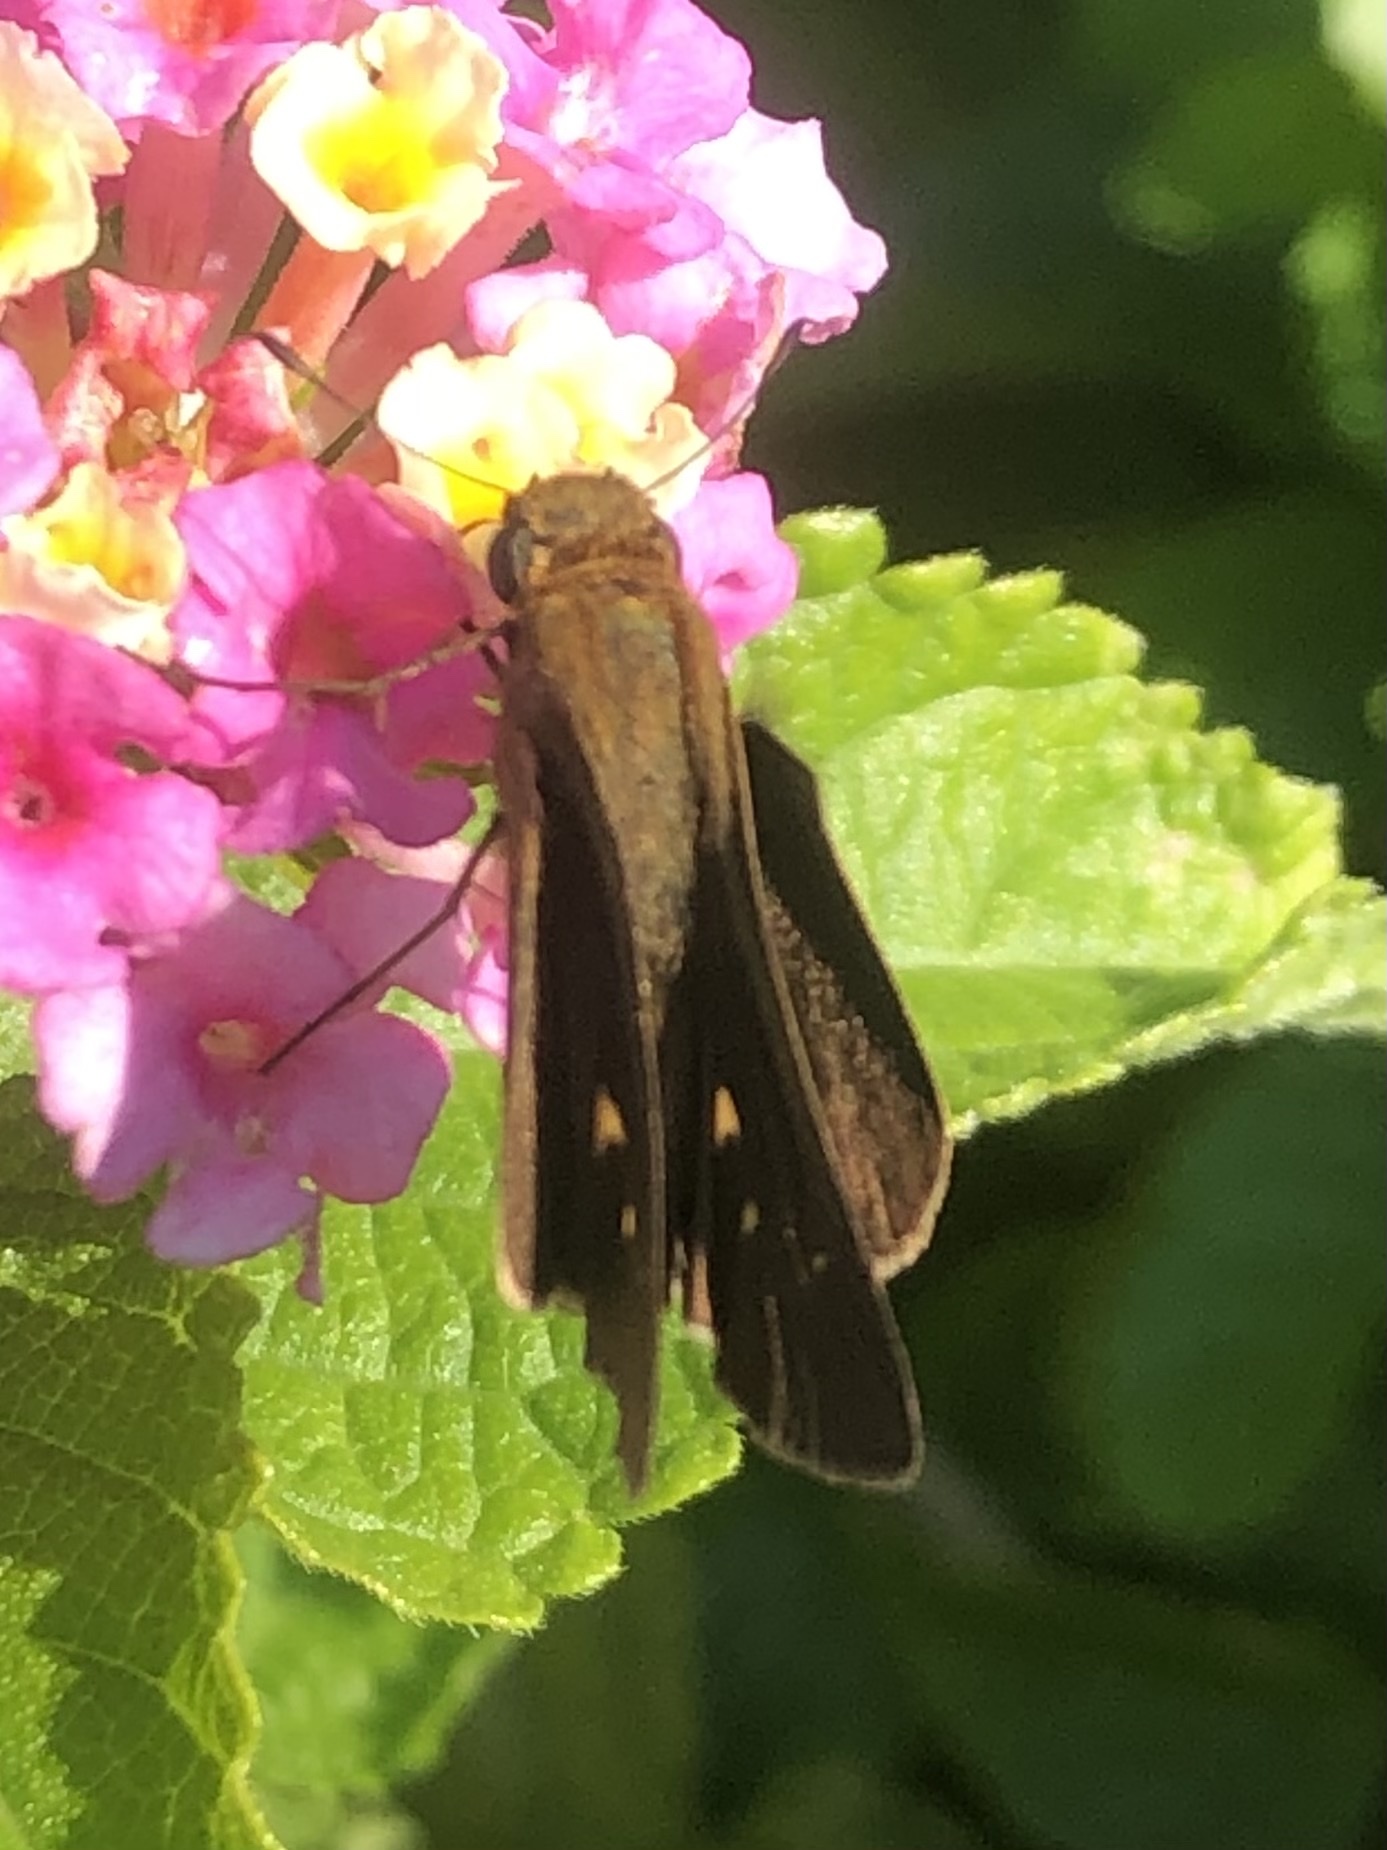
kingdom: Animalia
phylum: Arthropoda
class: Insecta
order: Lepidoptera
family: Hesperiidae
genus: Panoquina
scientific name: Panoquina ocola
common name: Ocola skipper
